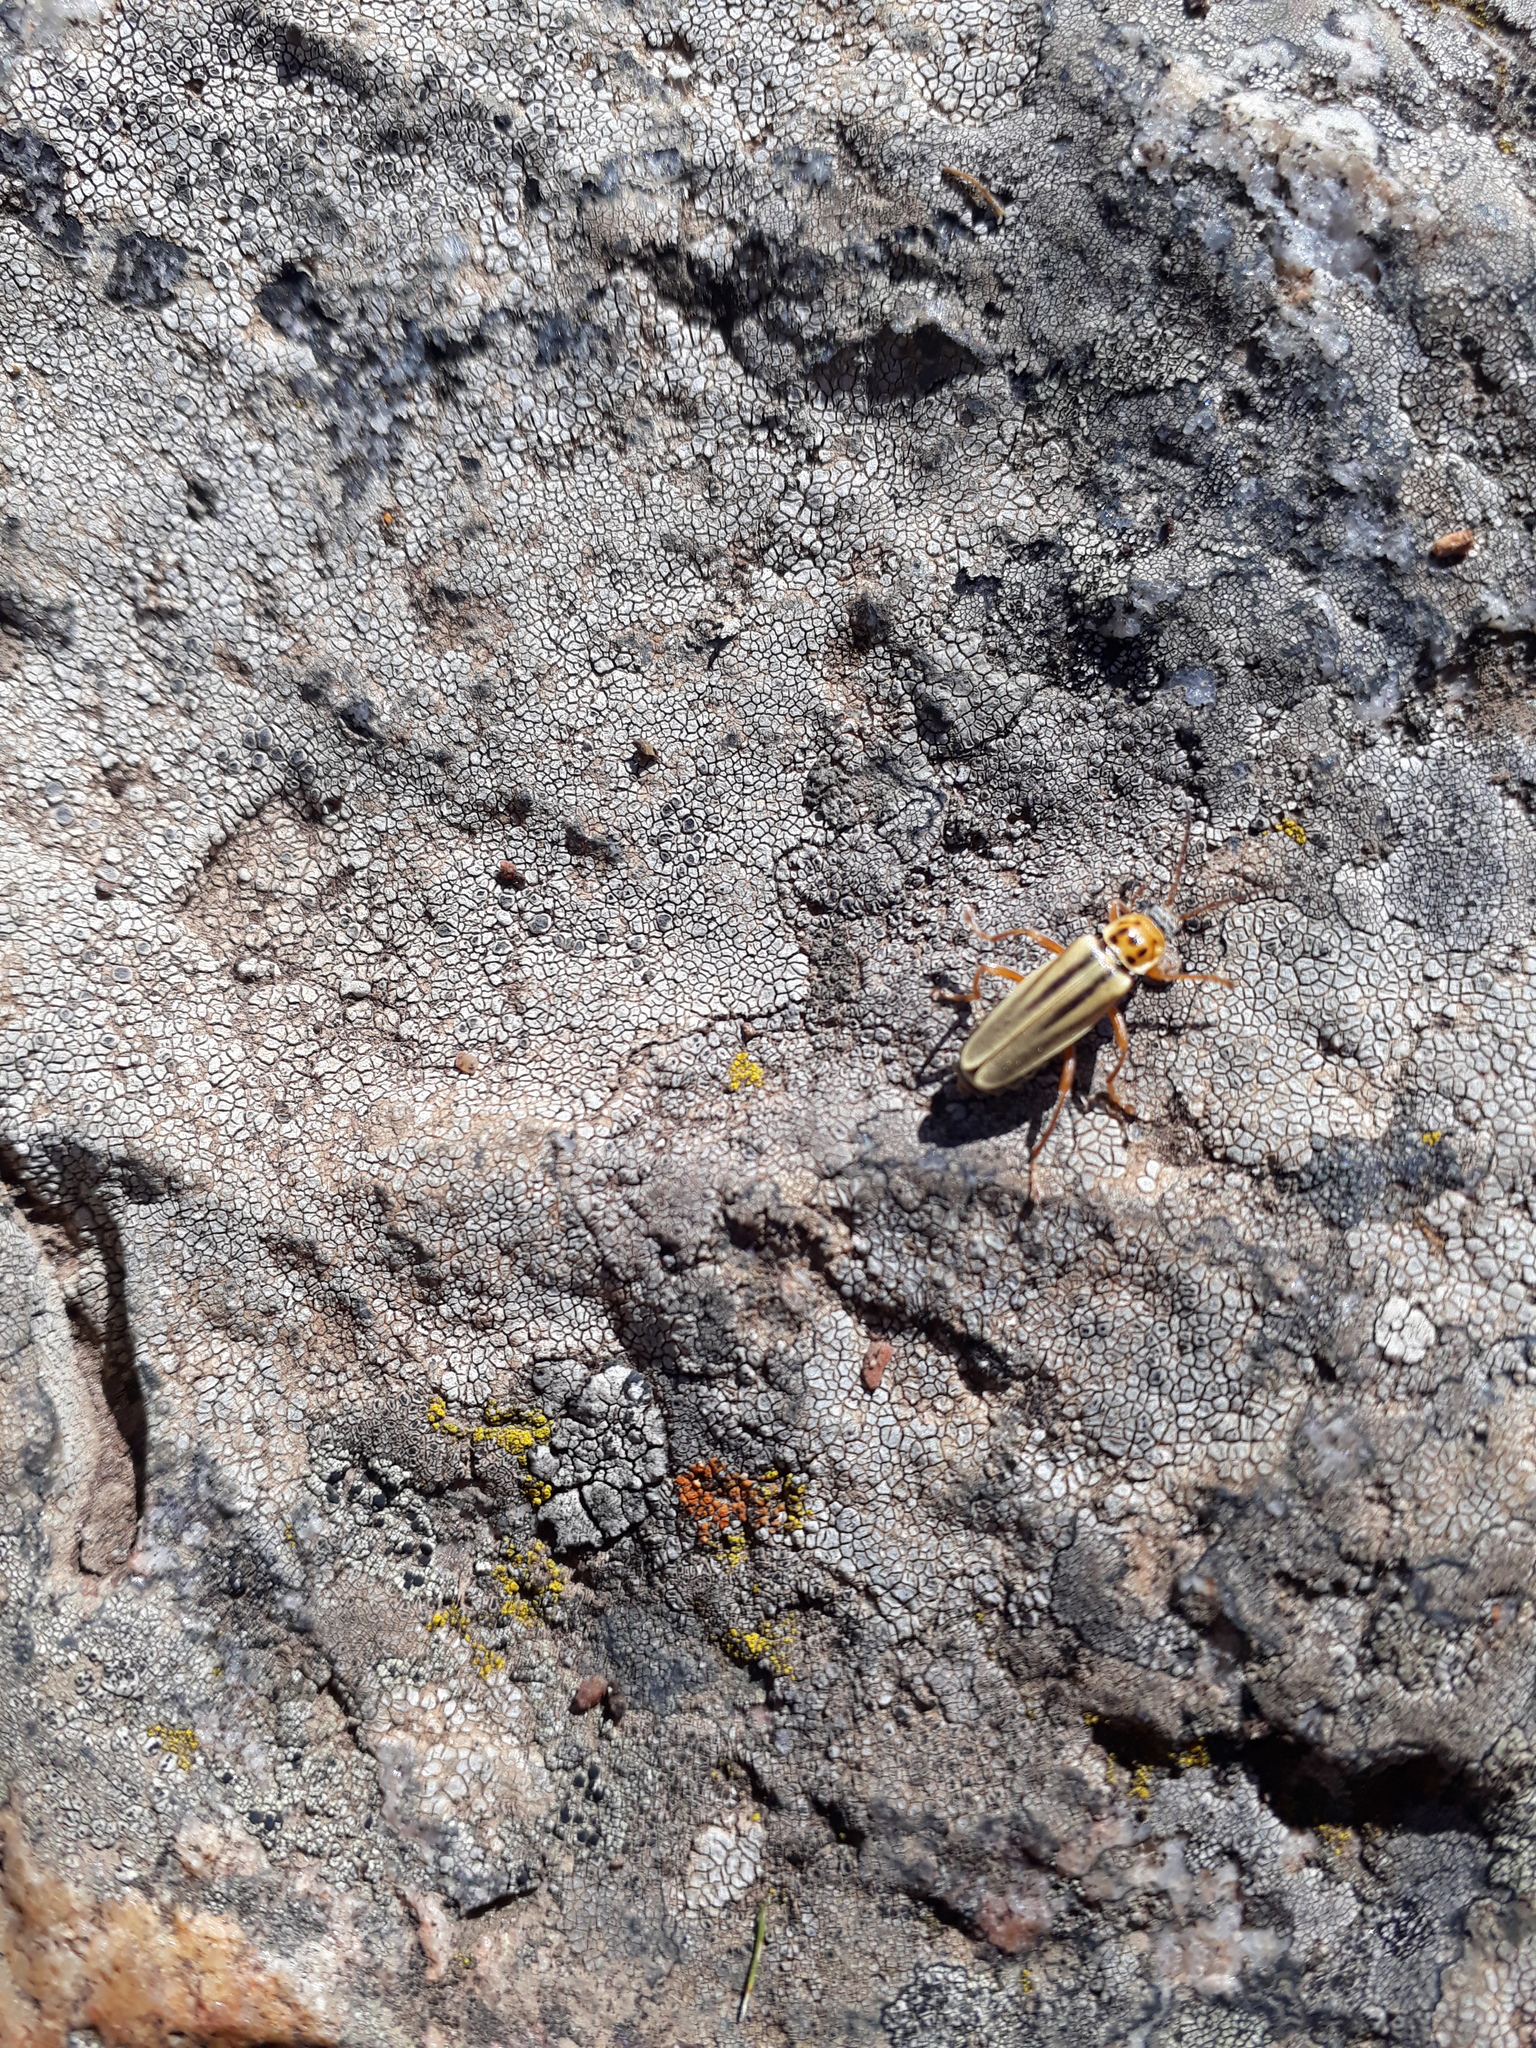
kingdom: Animalia
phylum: Arthropoda
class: Insecta
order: Coleoptera
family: Cantharidae
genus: Chauliognathus
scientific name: Chauliognathus
